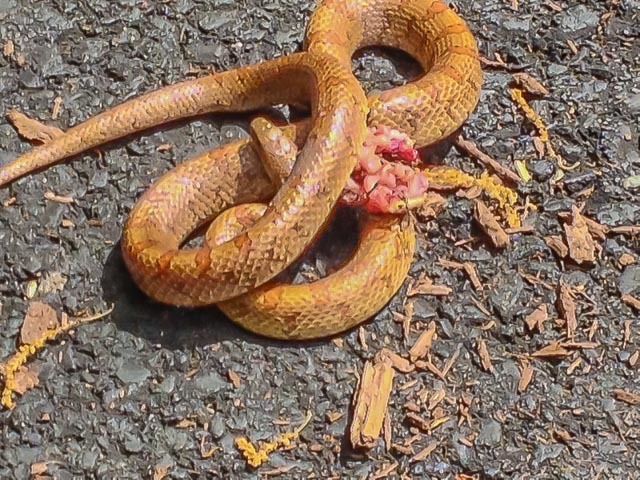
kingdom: Animalia
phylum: Chordata
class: Squamata
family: Colubridae
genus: Lampropeltis
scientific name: Lampropeltis rhombomaculata
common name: Mole kingsnake
